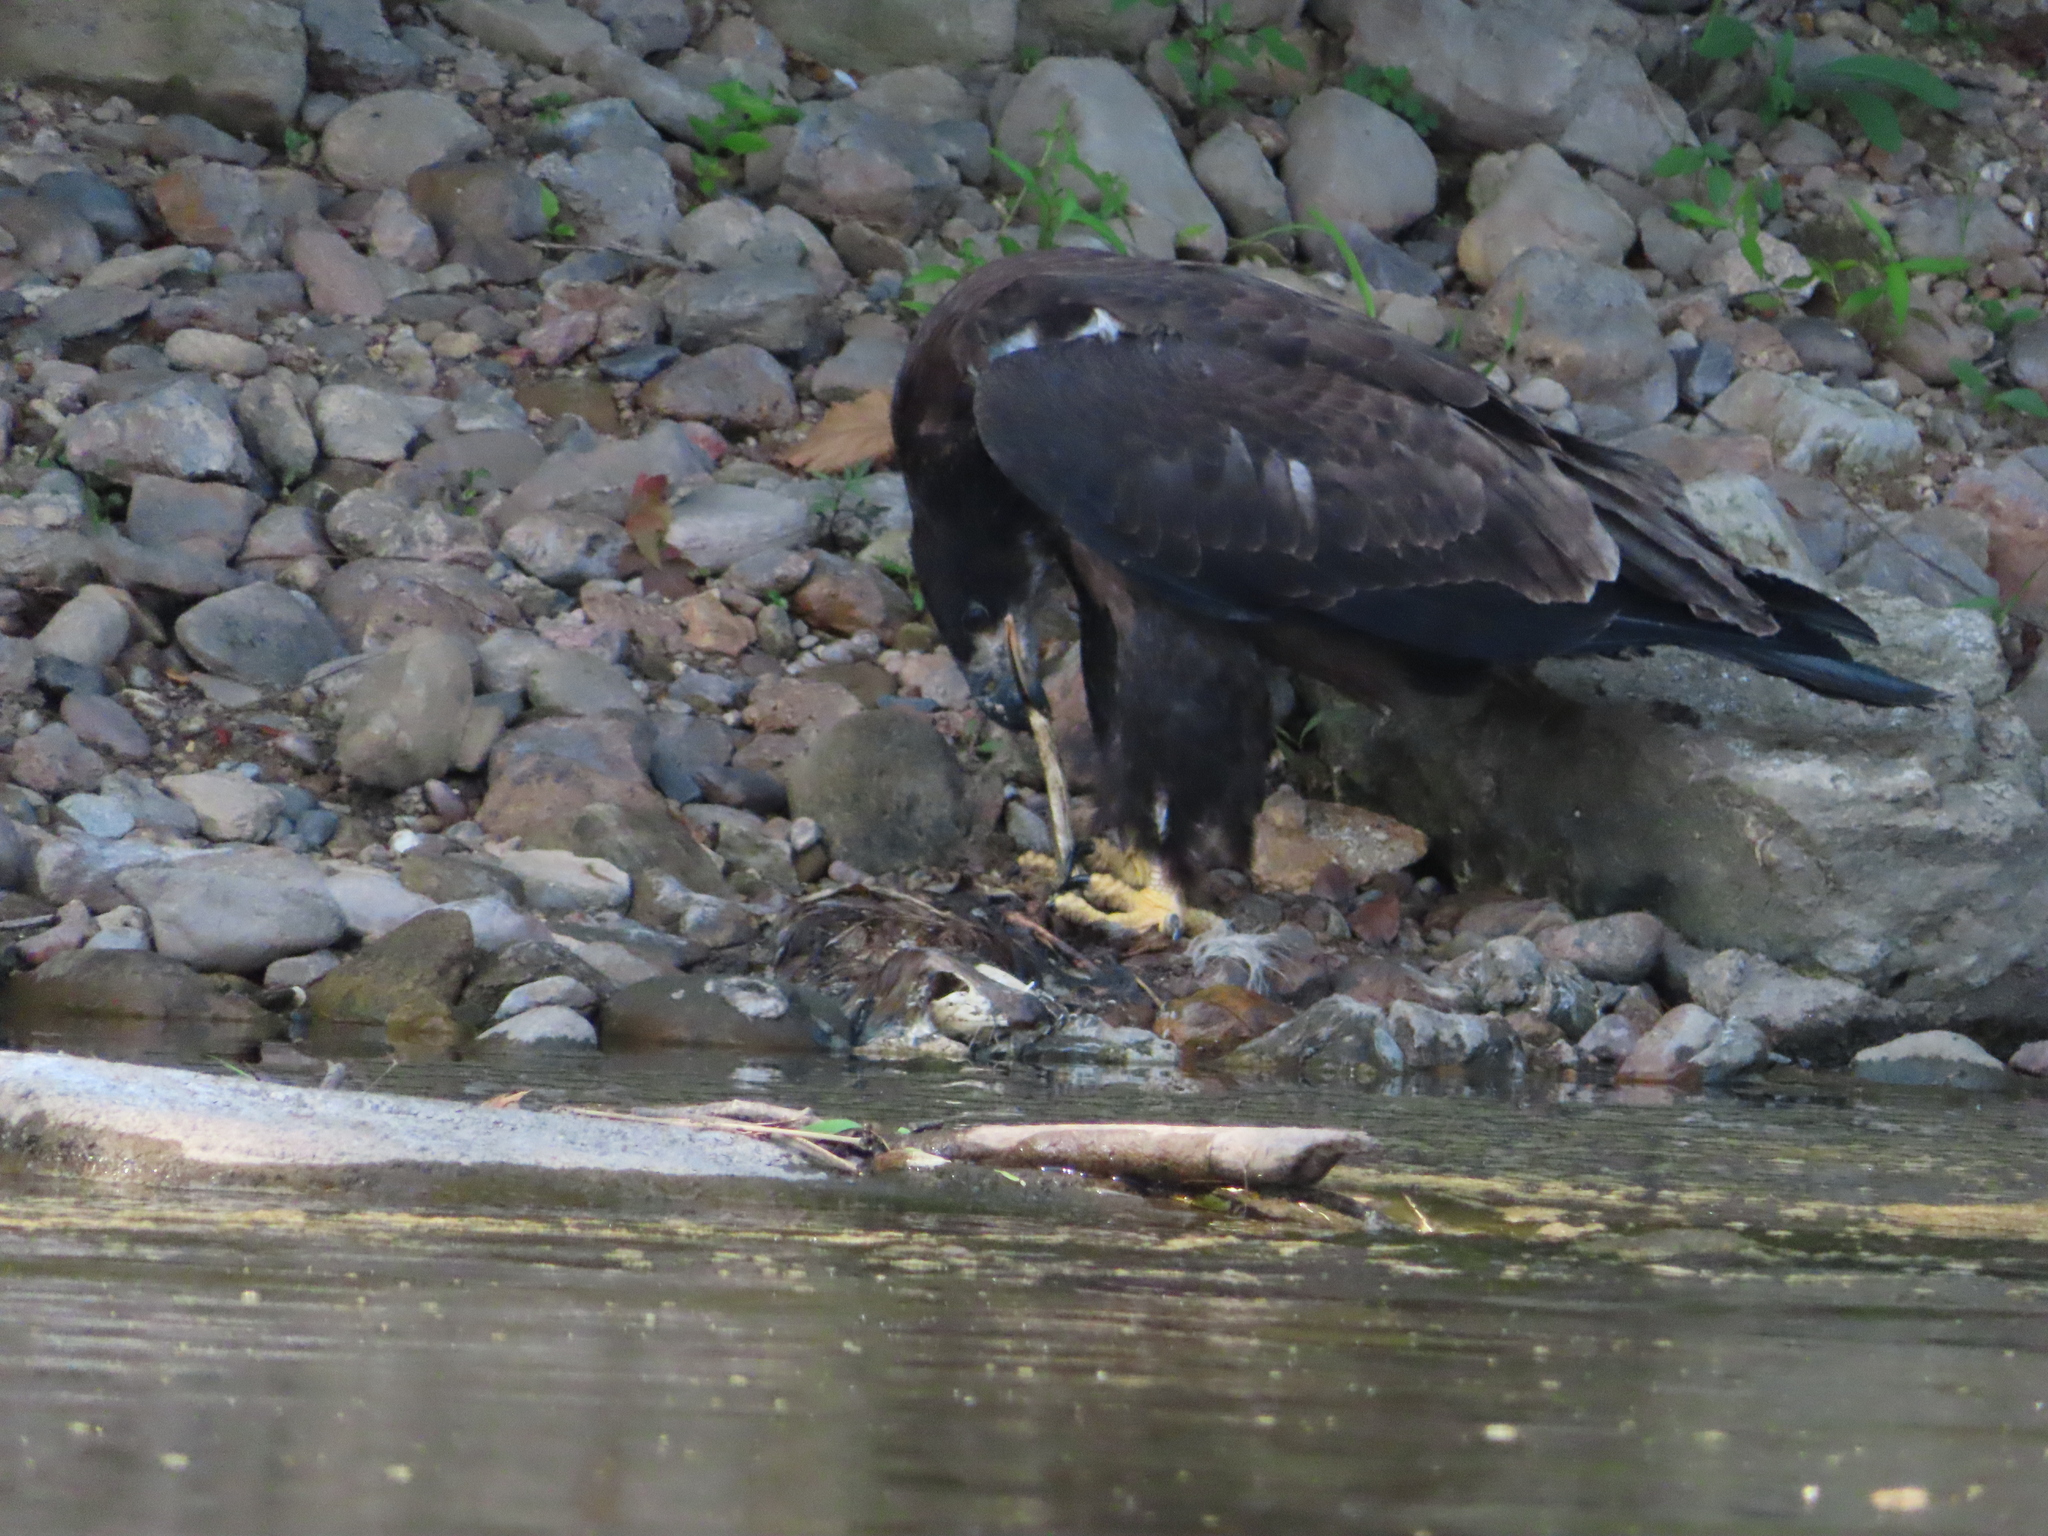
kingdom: Animalia
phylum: Chordata
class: Aves
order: Accipitriformes
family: Accipitridae
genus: Haliaeetus
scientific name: Haliaeetus leucocephalus
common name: Bald eagle
